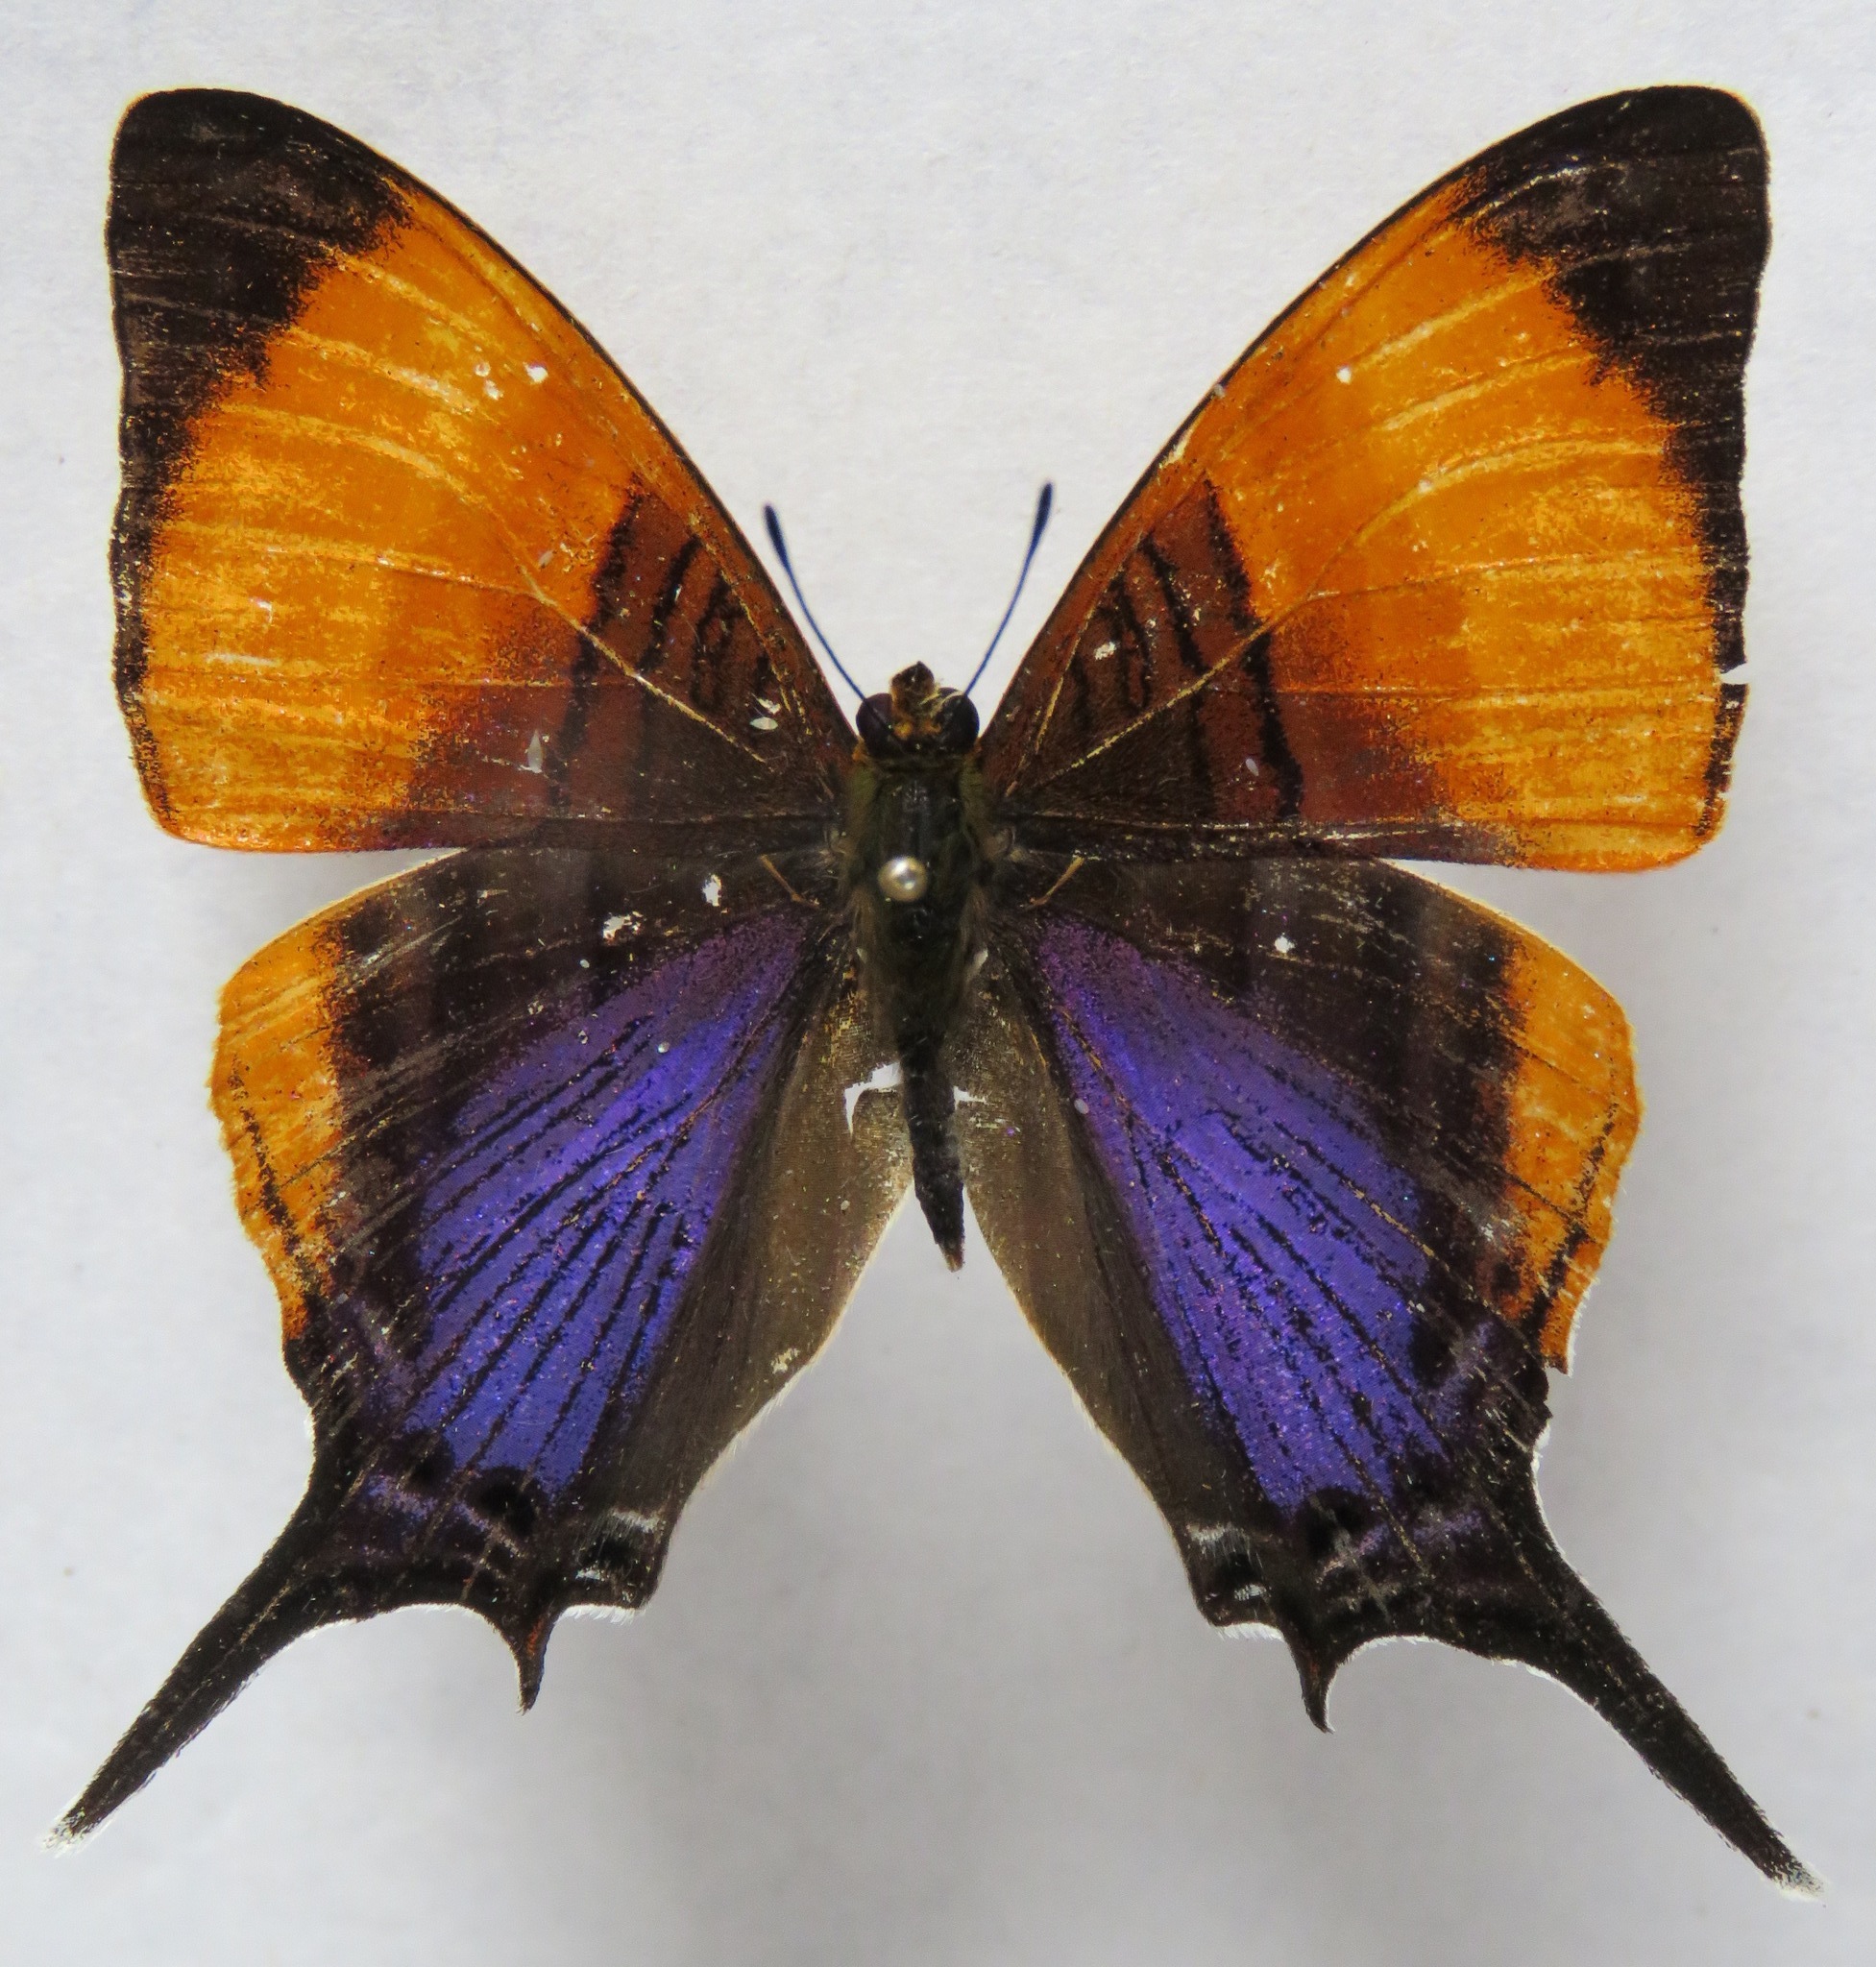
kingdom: Animalia
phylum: Arthropoda
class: Insecta
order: Lepidoptera
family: Nymphalidae
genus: Marpesia
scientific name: Marpesia marcella
